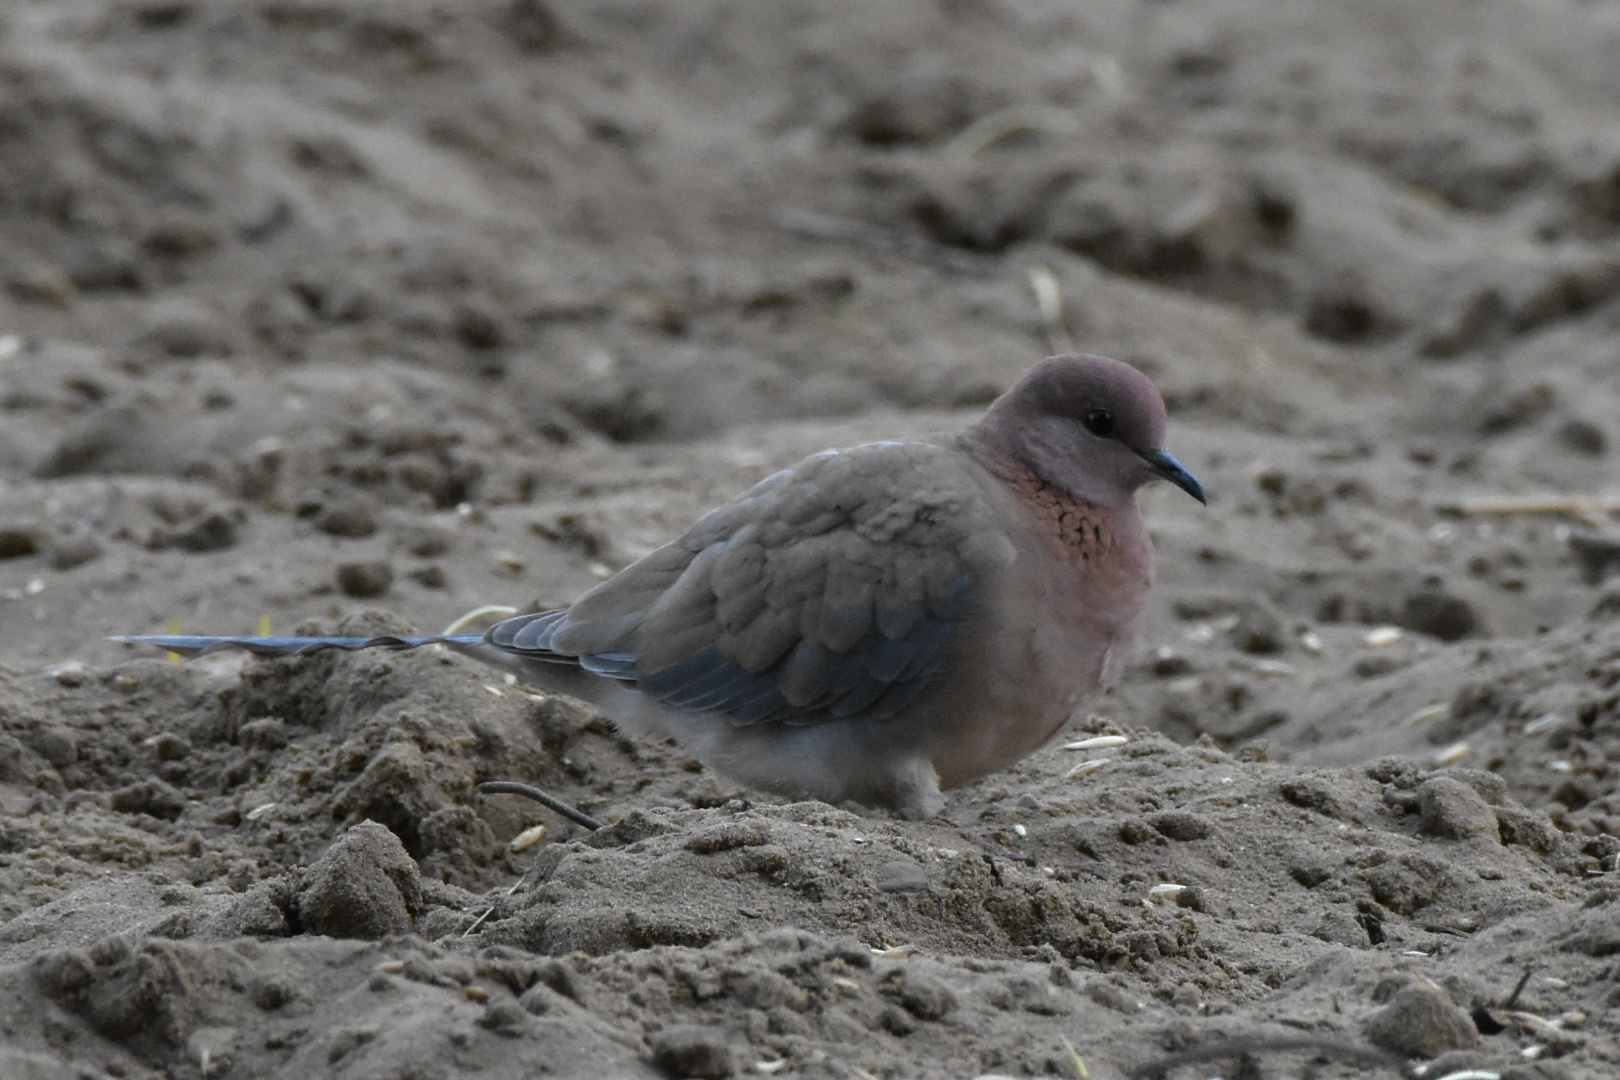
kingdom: Animalia
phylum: Chordata
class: Aves
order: Columbiformes
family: Columbidae
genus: Spilopelia
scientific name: Spilopelia senegalensis
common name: Laughing dove
